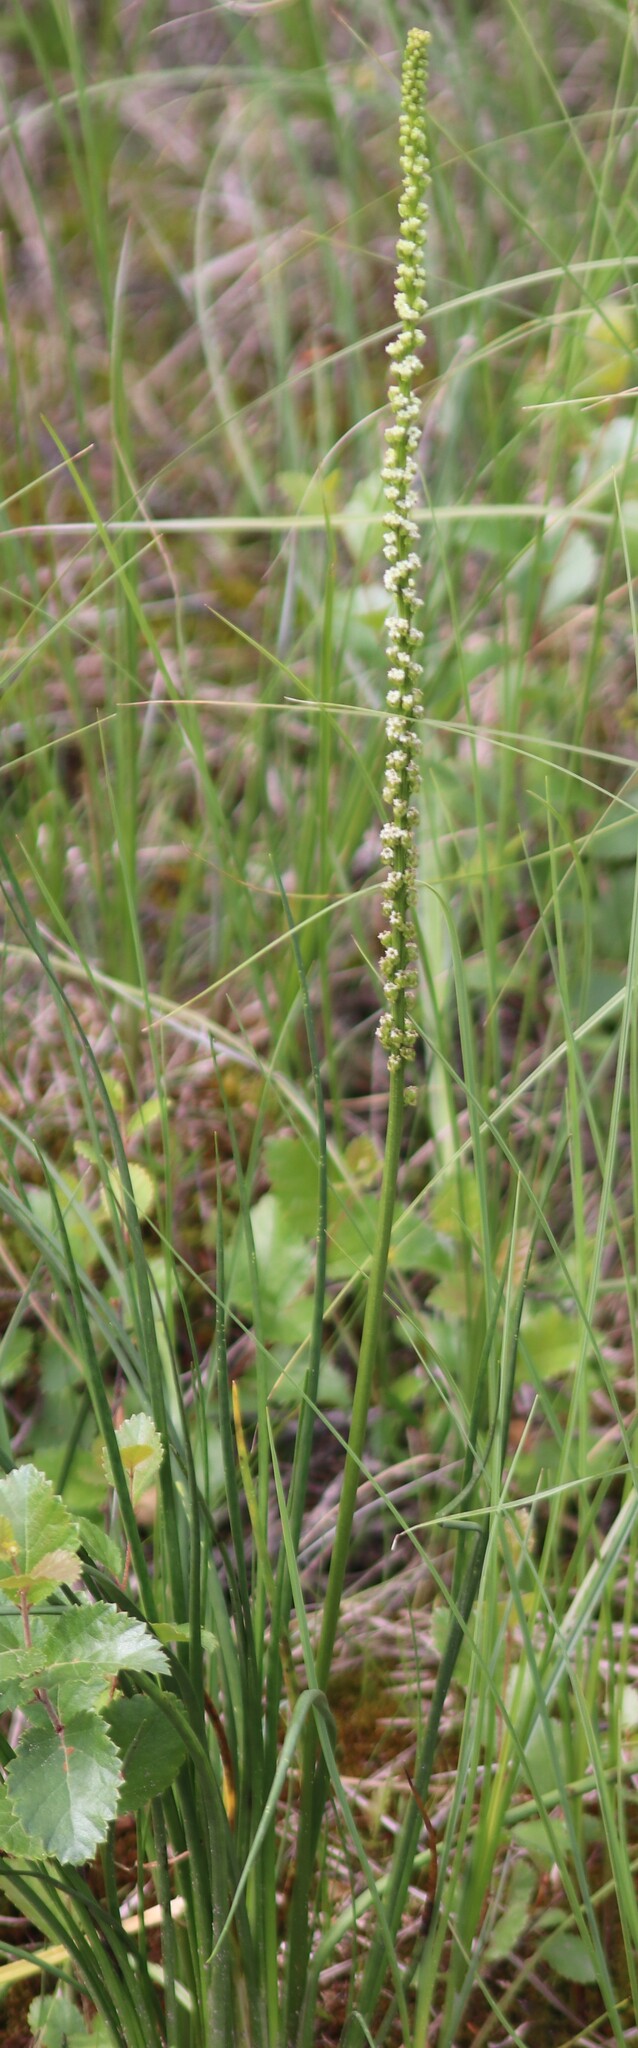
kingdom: Plantae
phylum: Tracheophyta
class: Liliopsida
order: Alismatales
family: Juncaginaceae
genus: Triglochin
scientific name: Triglochin maritima
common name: Sea arrowgrass
